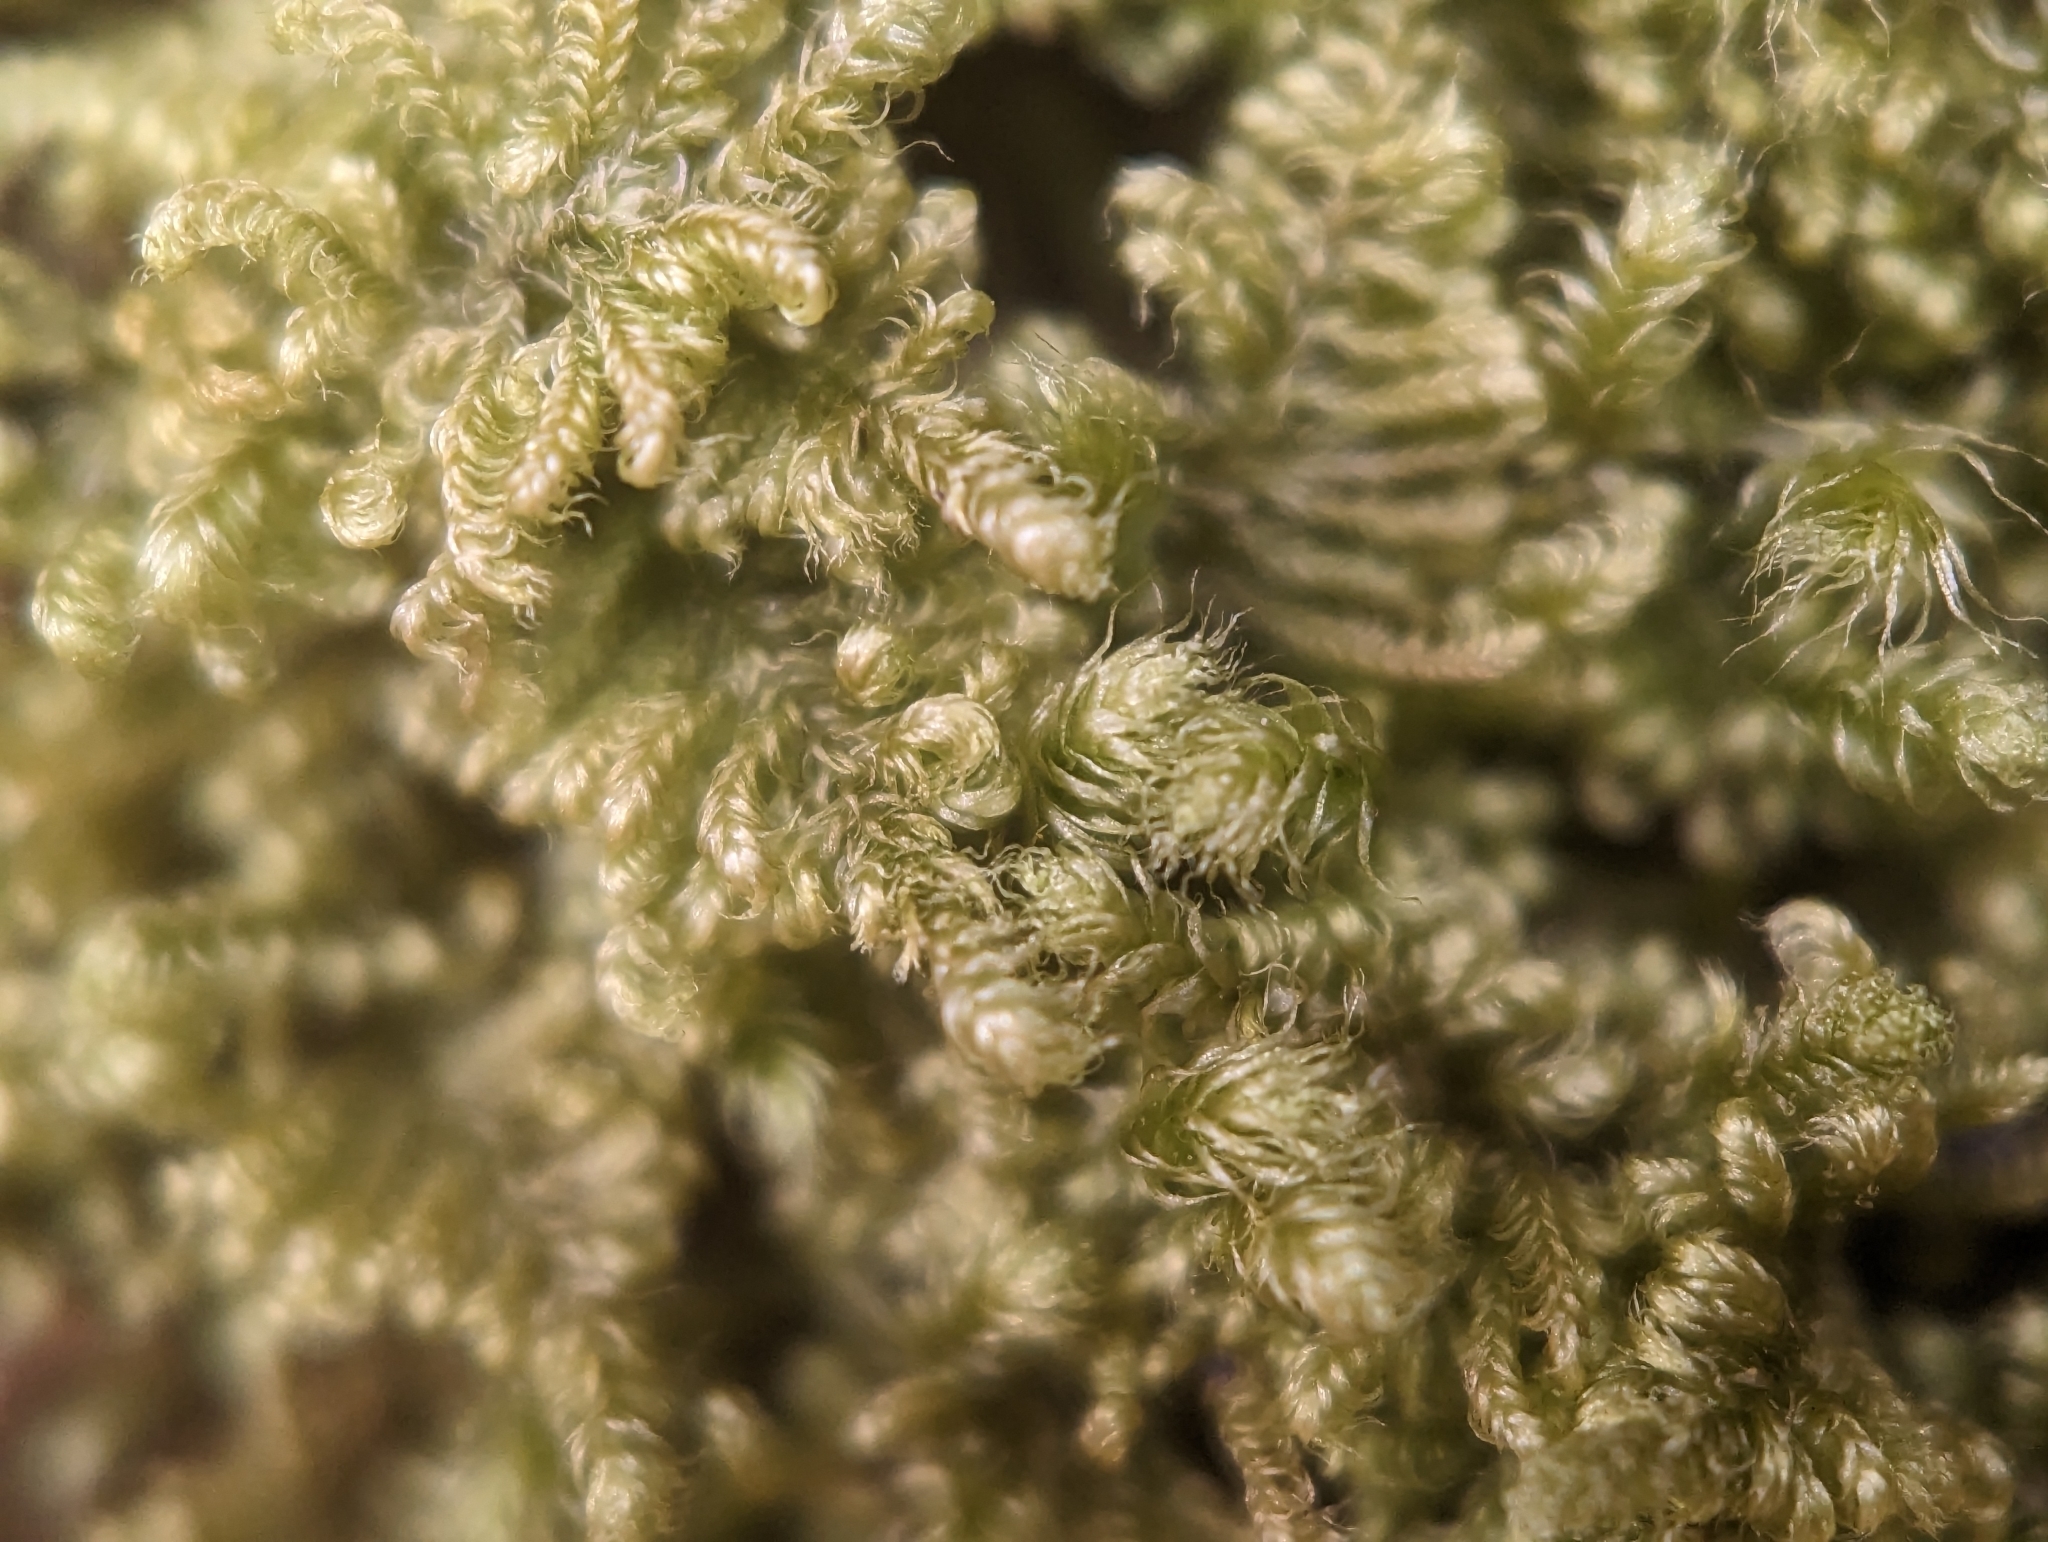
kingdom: Plantae
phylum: Bryophyta
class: Bryopsida
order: Hypnales
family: Myuriaceae
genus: Ctenidium
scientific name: Ctenidium molluscum
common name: Chalk comb-moss
